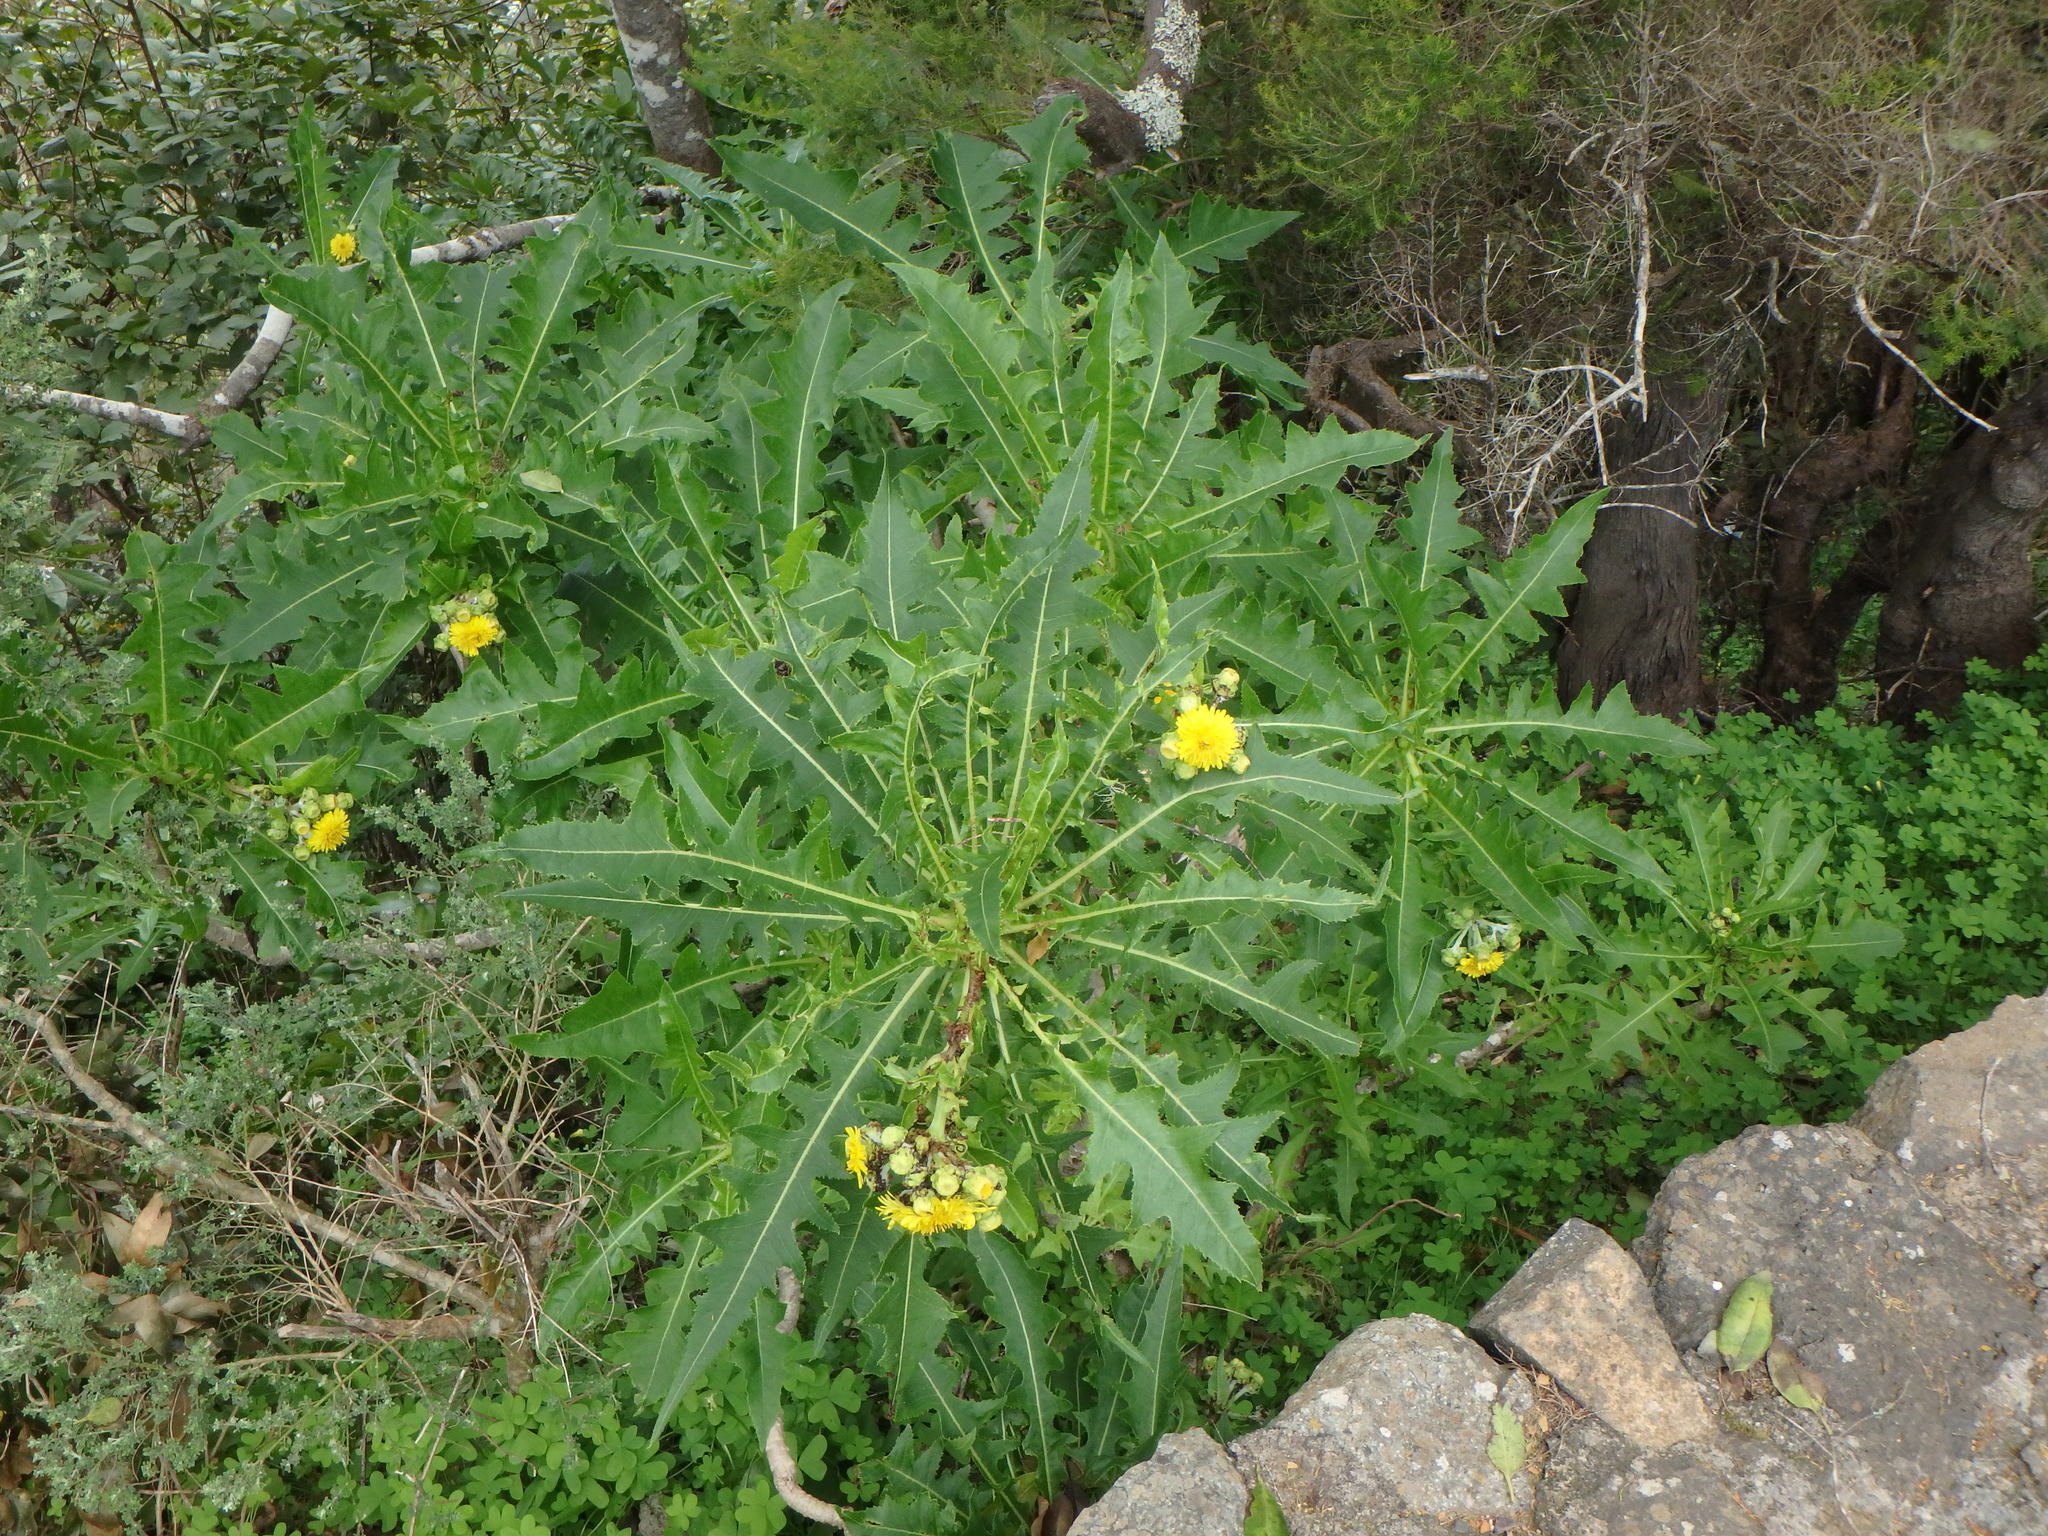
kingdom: Plantae
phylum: Tracheophyta
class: Magnoliopsida
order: Asterales
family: Asteraceae
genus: Sonchus
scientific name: Sonchus congestus
